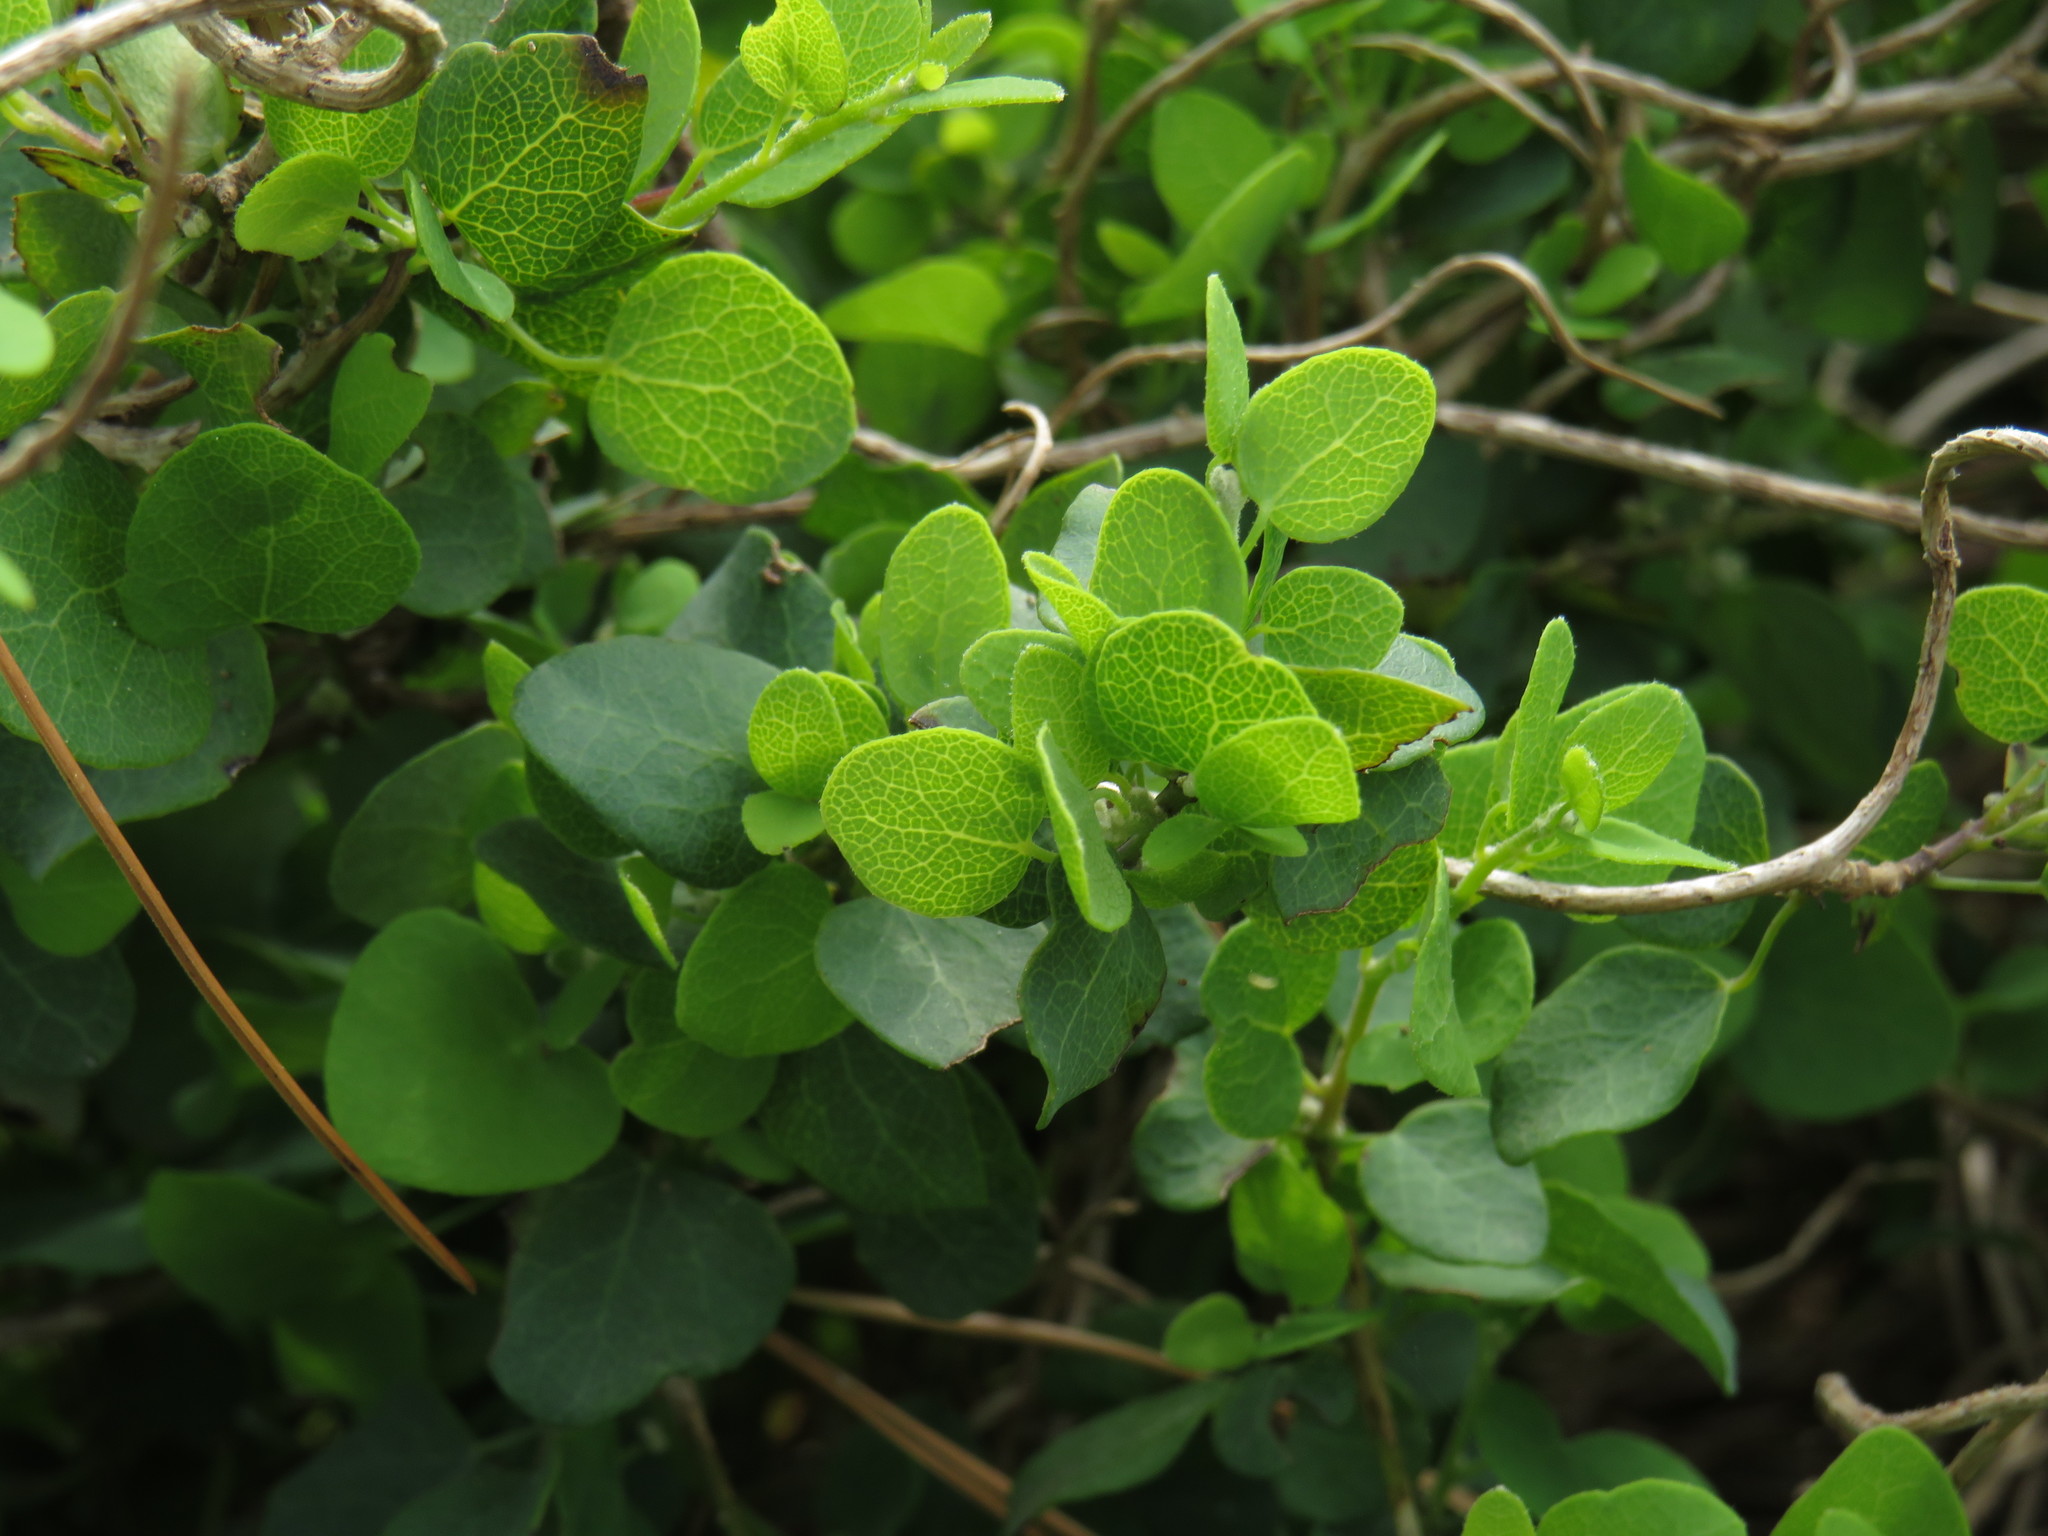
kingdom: Plantae
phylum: Tracheophyta
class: Magnoliopsida
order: Ranunculales
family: Menispermaceae
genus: Cissampelos
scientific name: Cissampelos capensis
